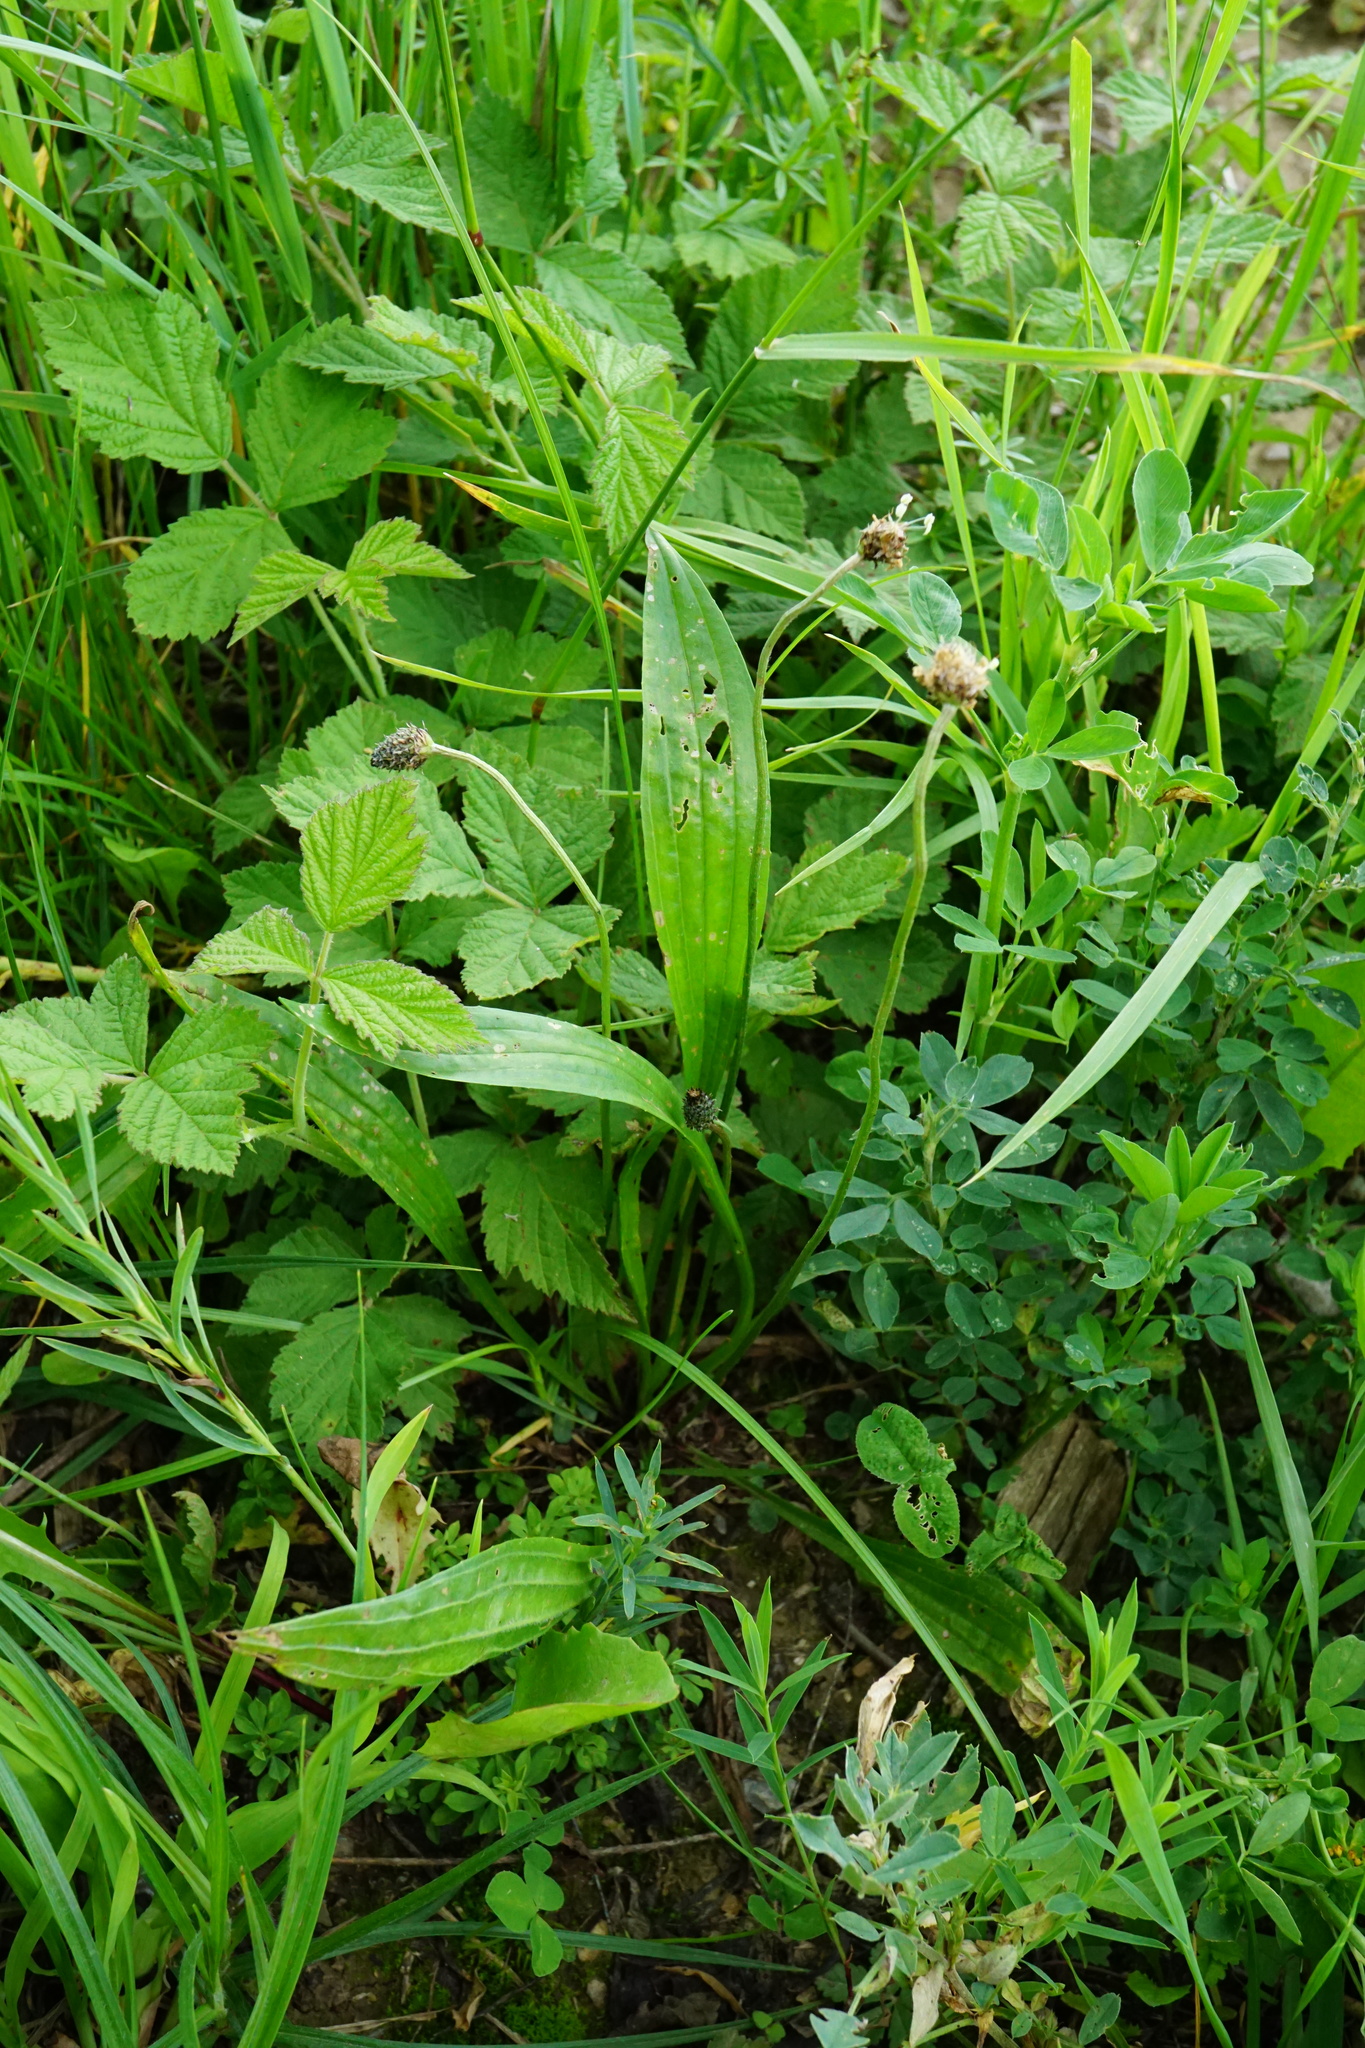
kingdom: Plantae
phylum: Tracheophyta
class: Magnoliopsida
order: Lamiales
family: Plantaginaceae
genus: Plantago
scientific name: Plantago lanceolata
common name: Ribwort plantain
